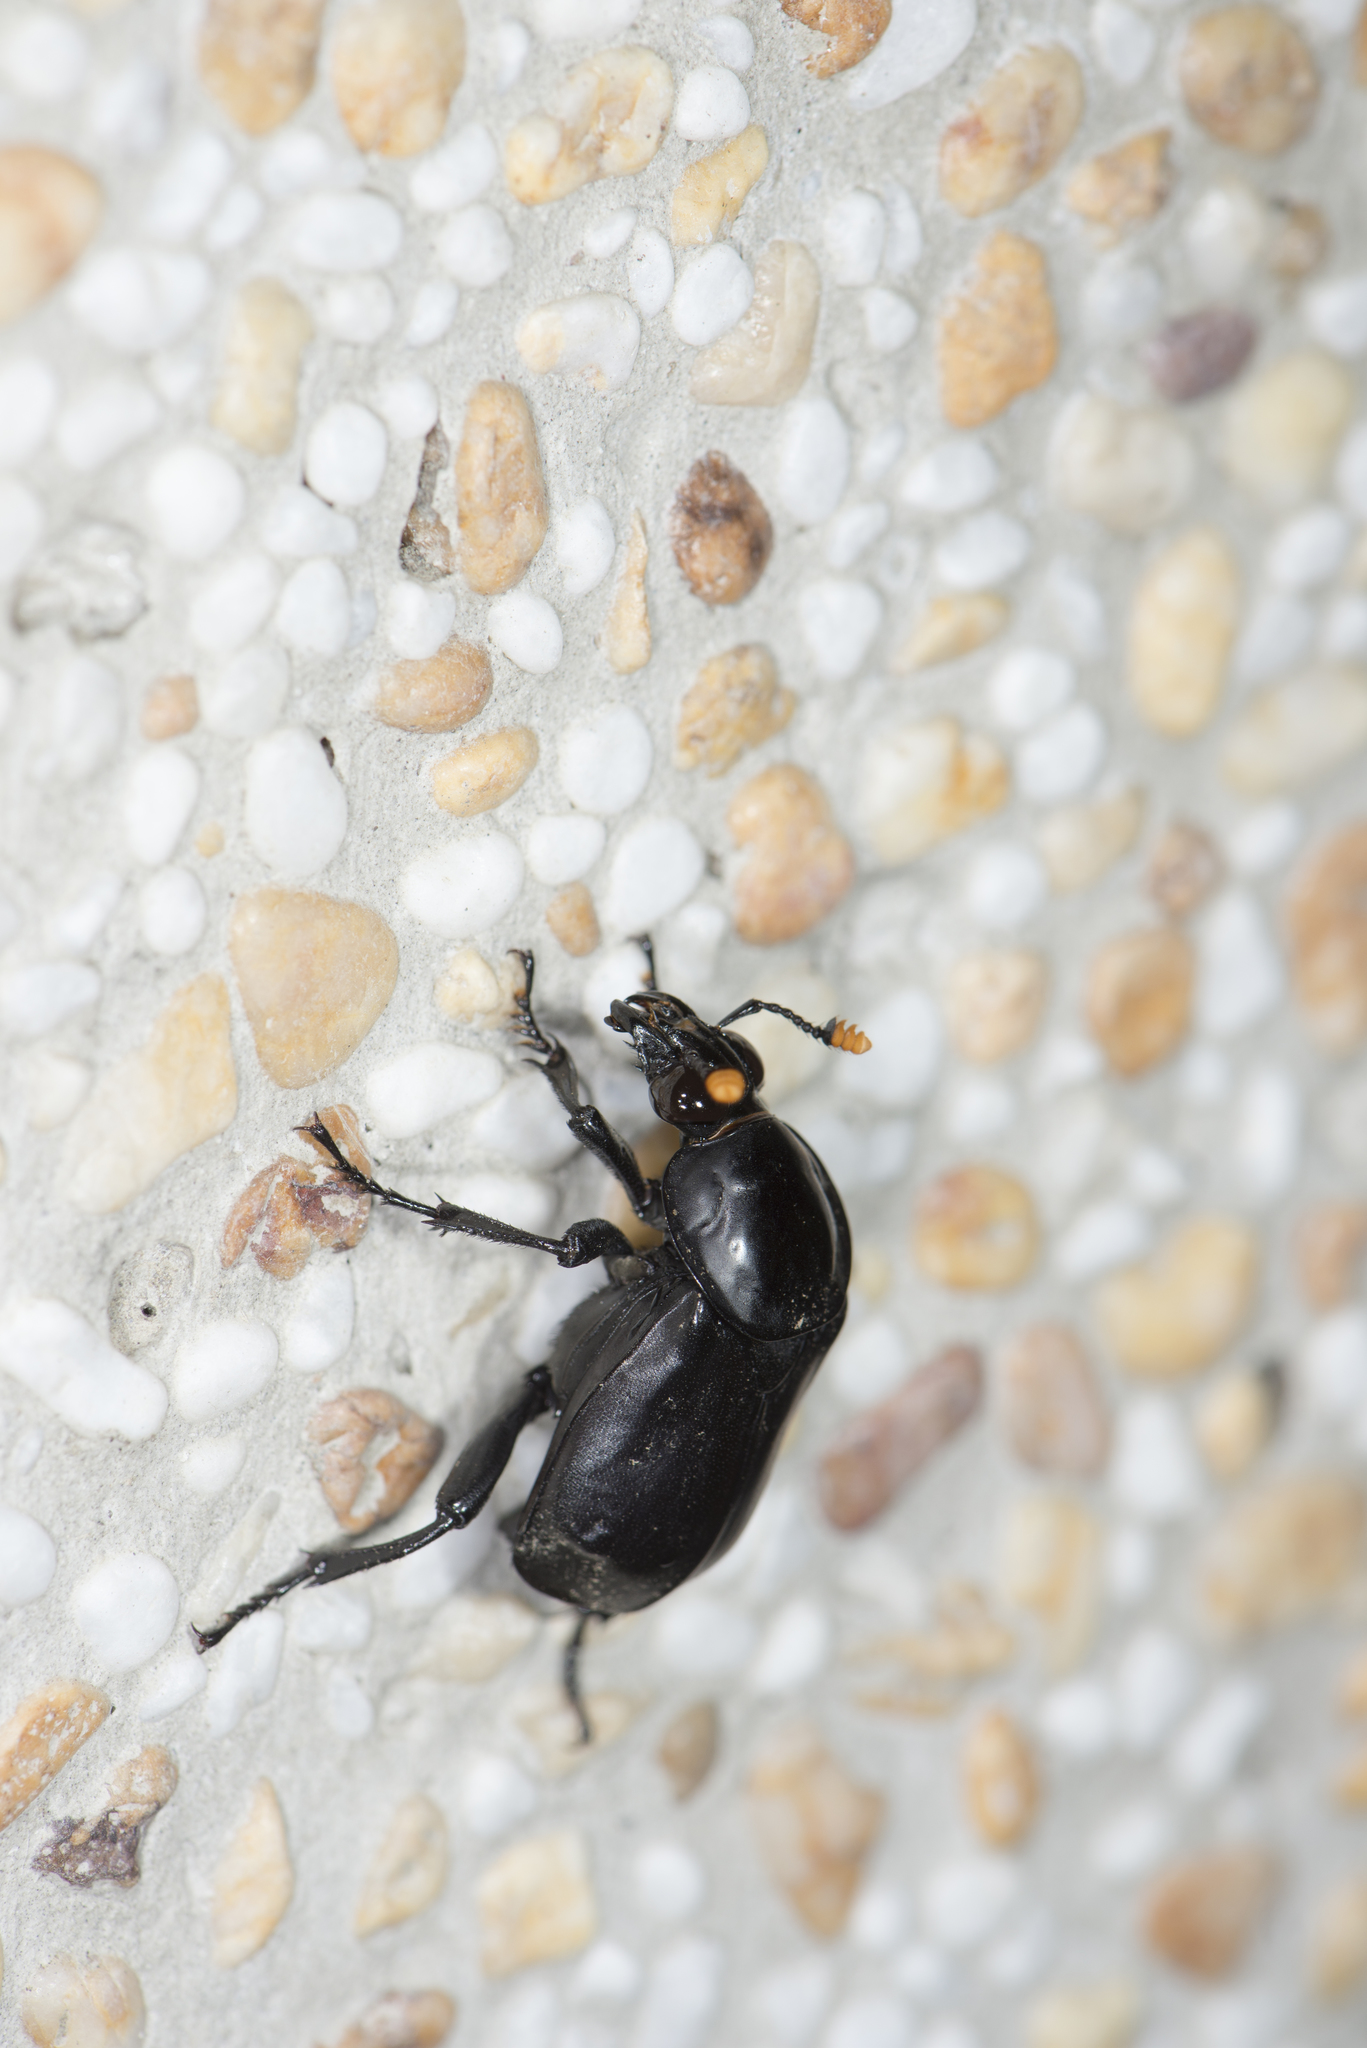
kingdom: Animalia
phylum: Arthropoda
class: Insecta
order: Coleoptera
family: Staphylinidae
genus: Nicrophorus
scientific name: Nicrophorus concolor
